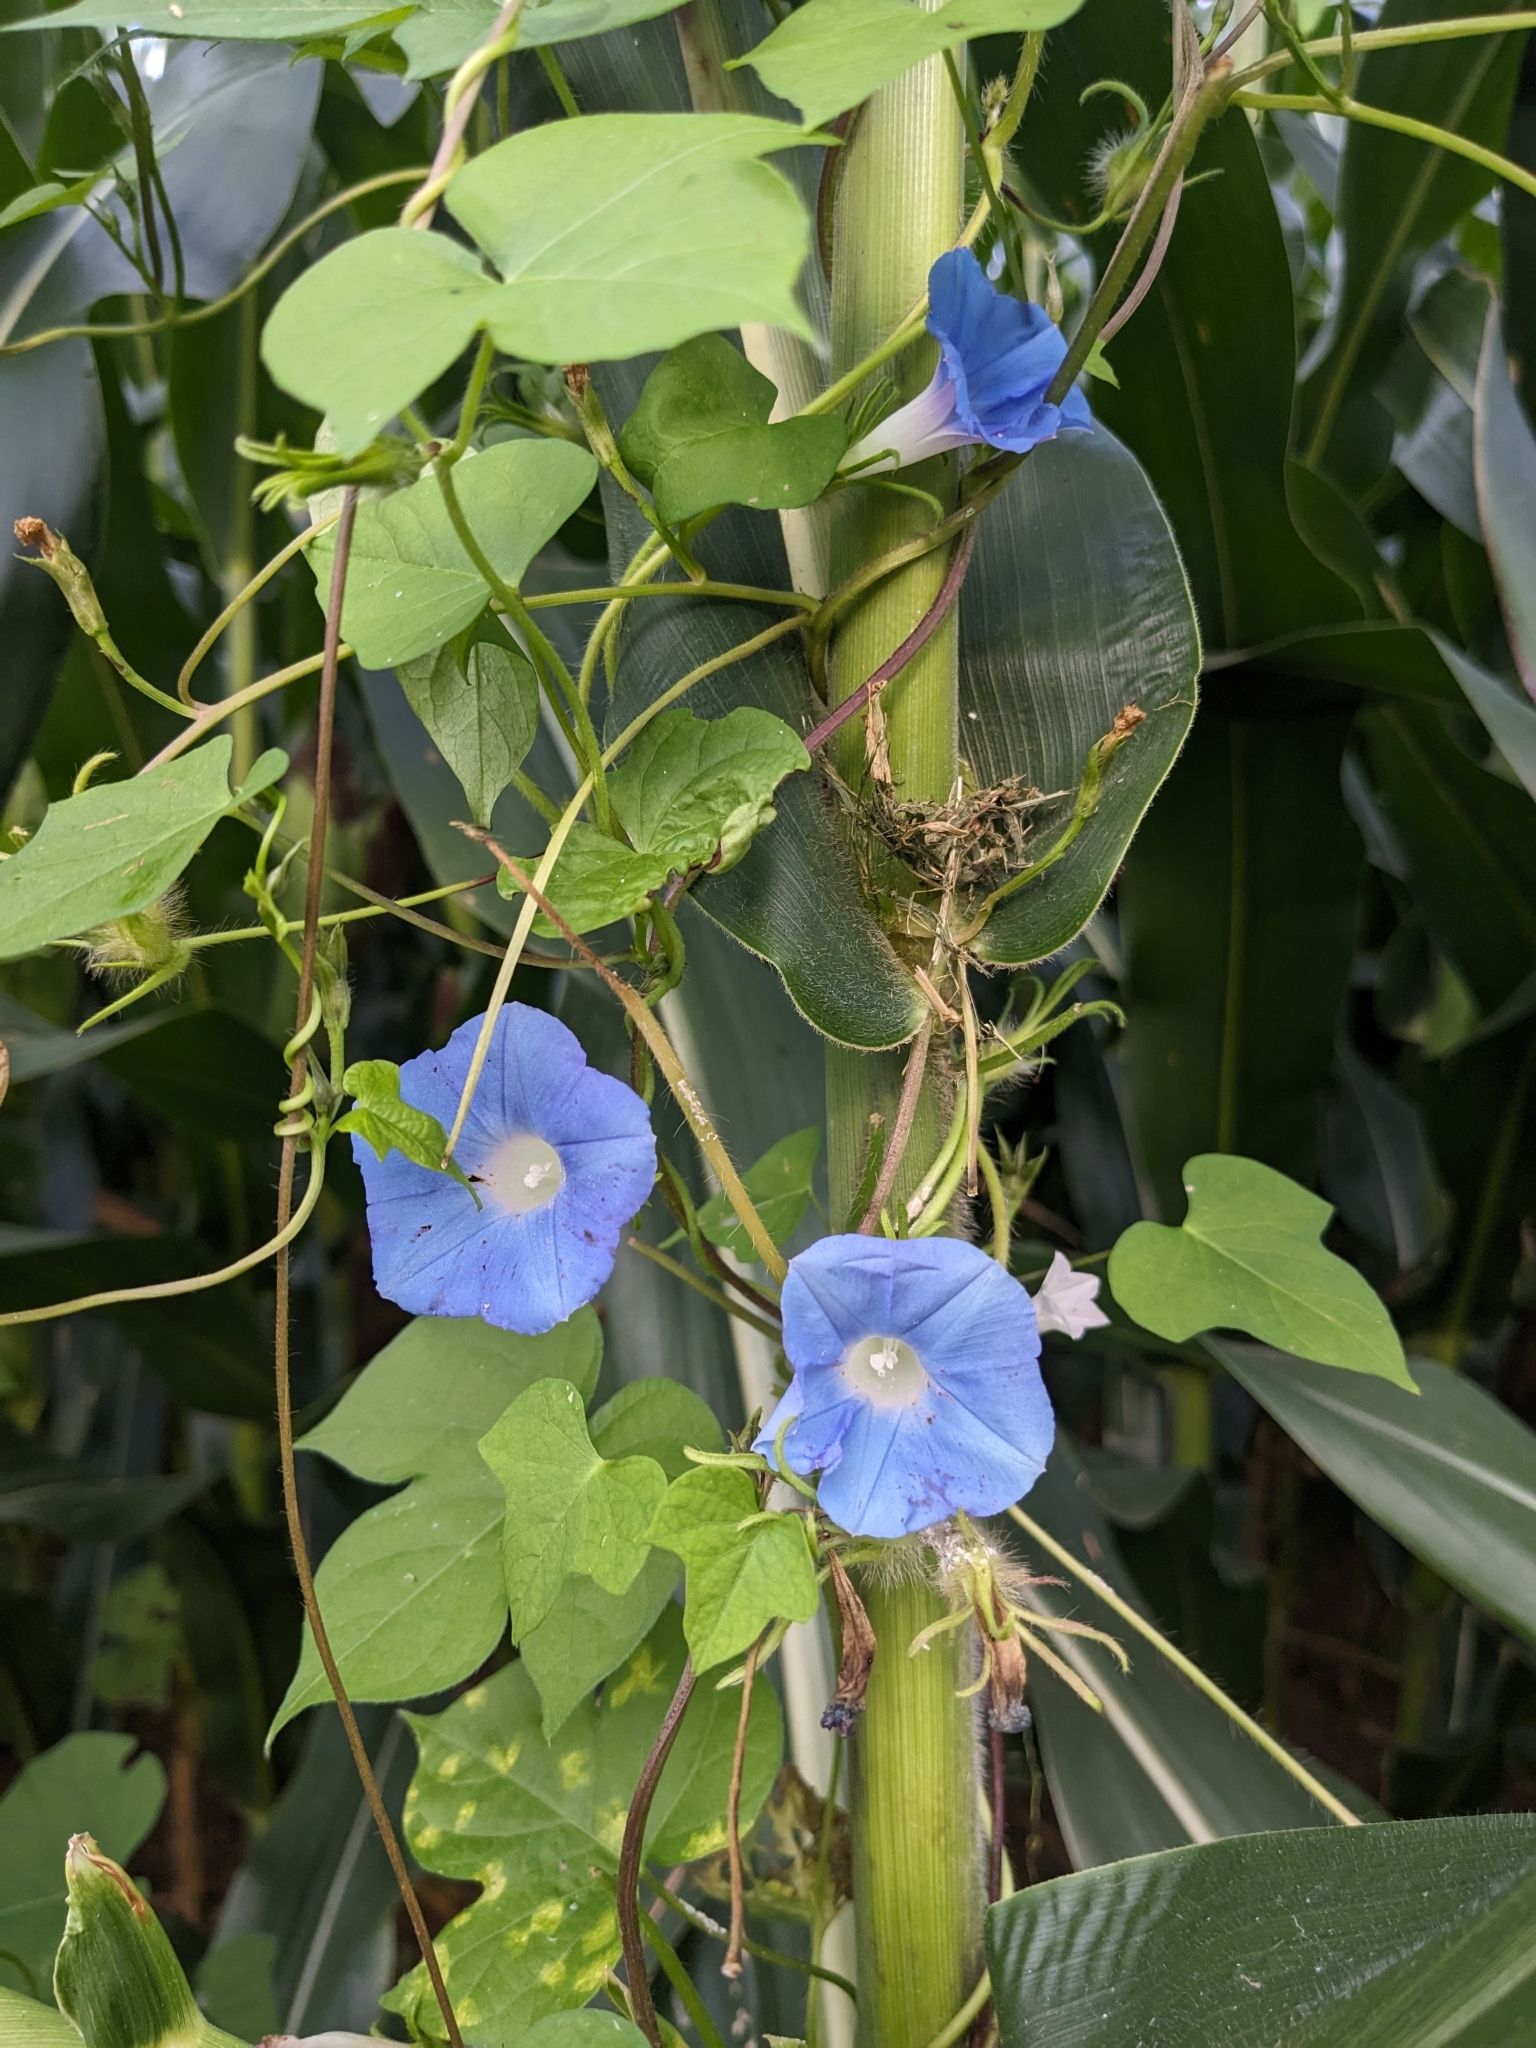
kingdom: Plantae
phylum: Tracheophyta
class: Magnoliopsida
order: Solanales
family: Convolvulaceae
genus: Ipomoea
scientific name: Ipomoea hederacea
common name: Ivy-leaved morning-glory
